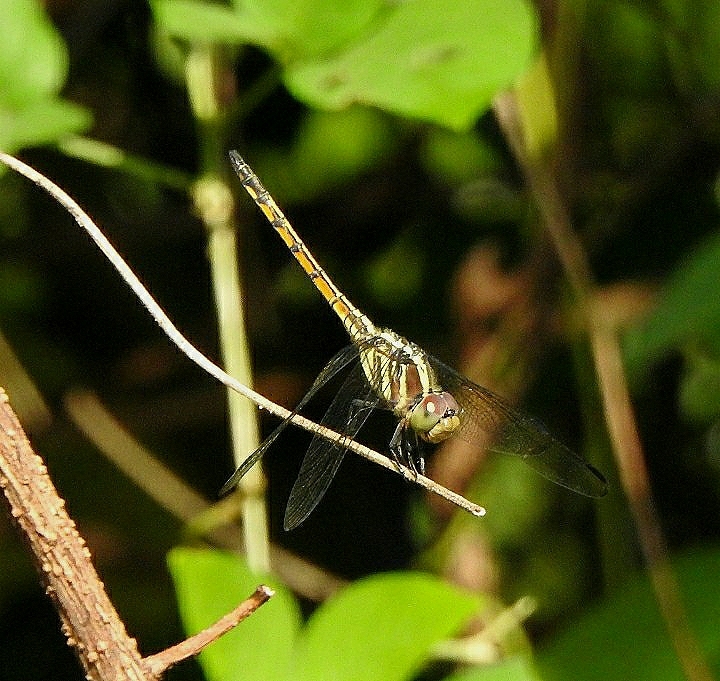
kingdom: Animalia
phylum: Arthropoda
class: Insecta
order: Odonata
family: Libellulidae
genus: Potamarcha
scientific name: Potamarcha congener
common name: Blue chaser
